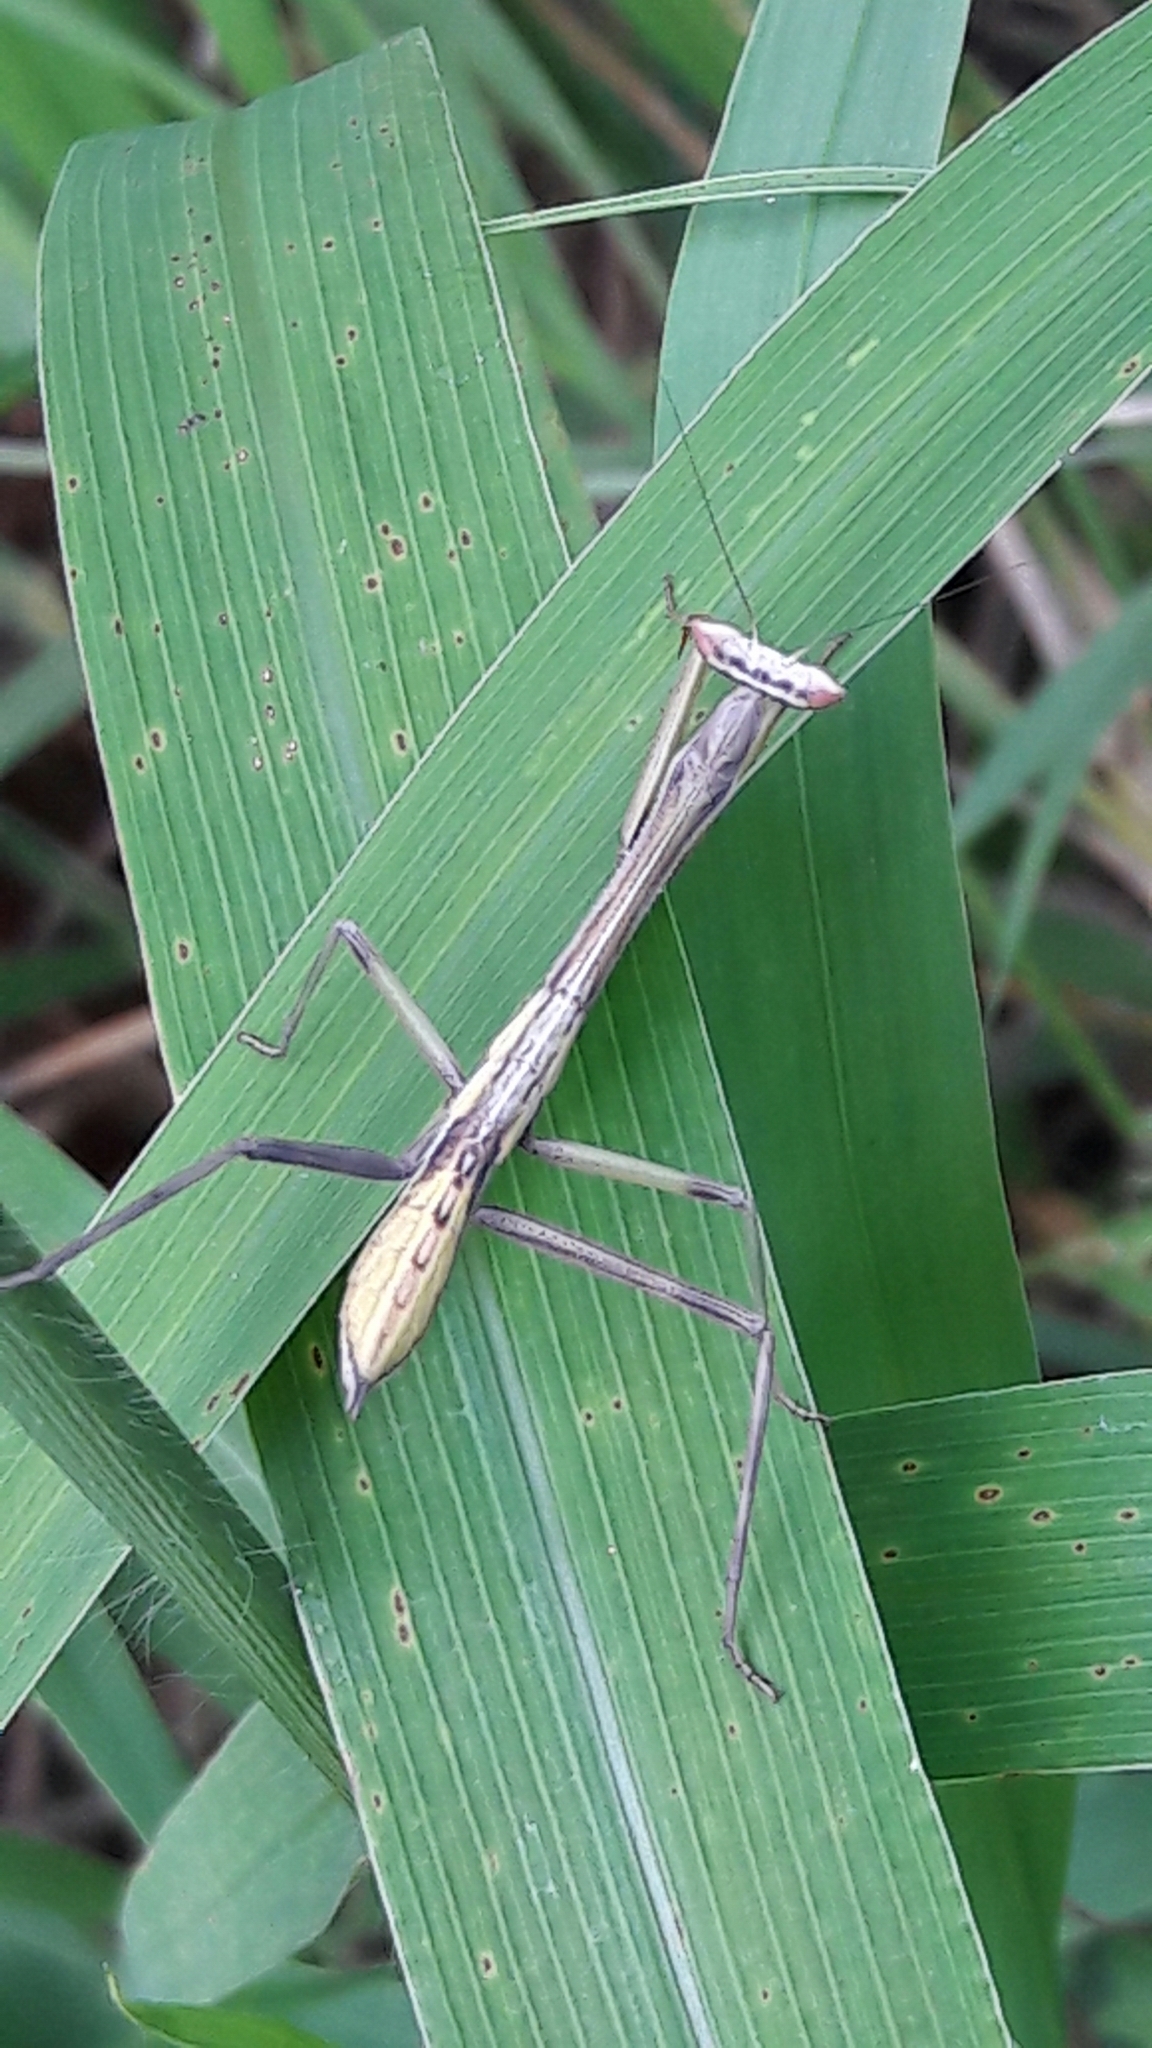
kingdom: Animalia
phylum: Arthropoda
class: Insecta
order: Mantodea
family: Mantidae
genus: Oxyopsis
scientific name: Oxyopsis
